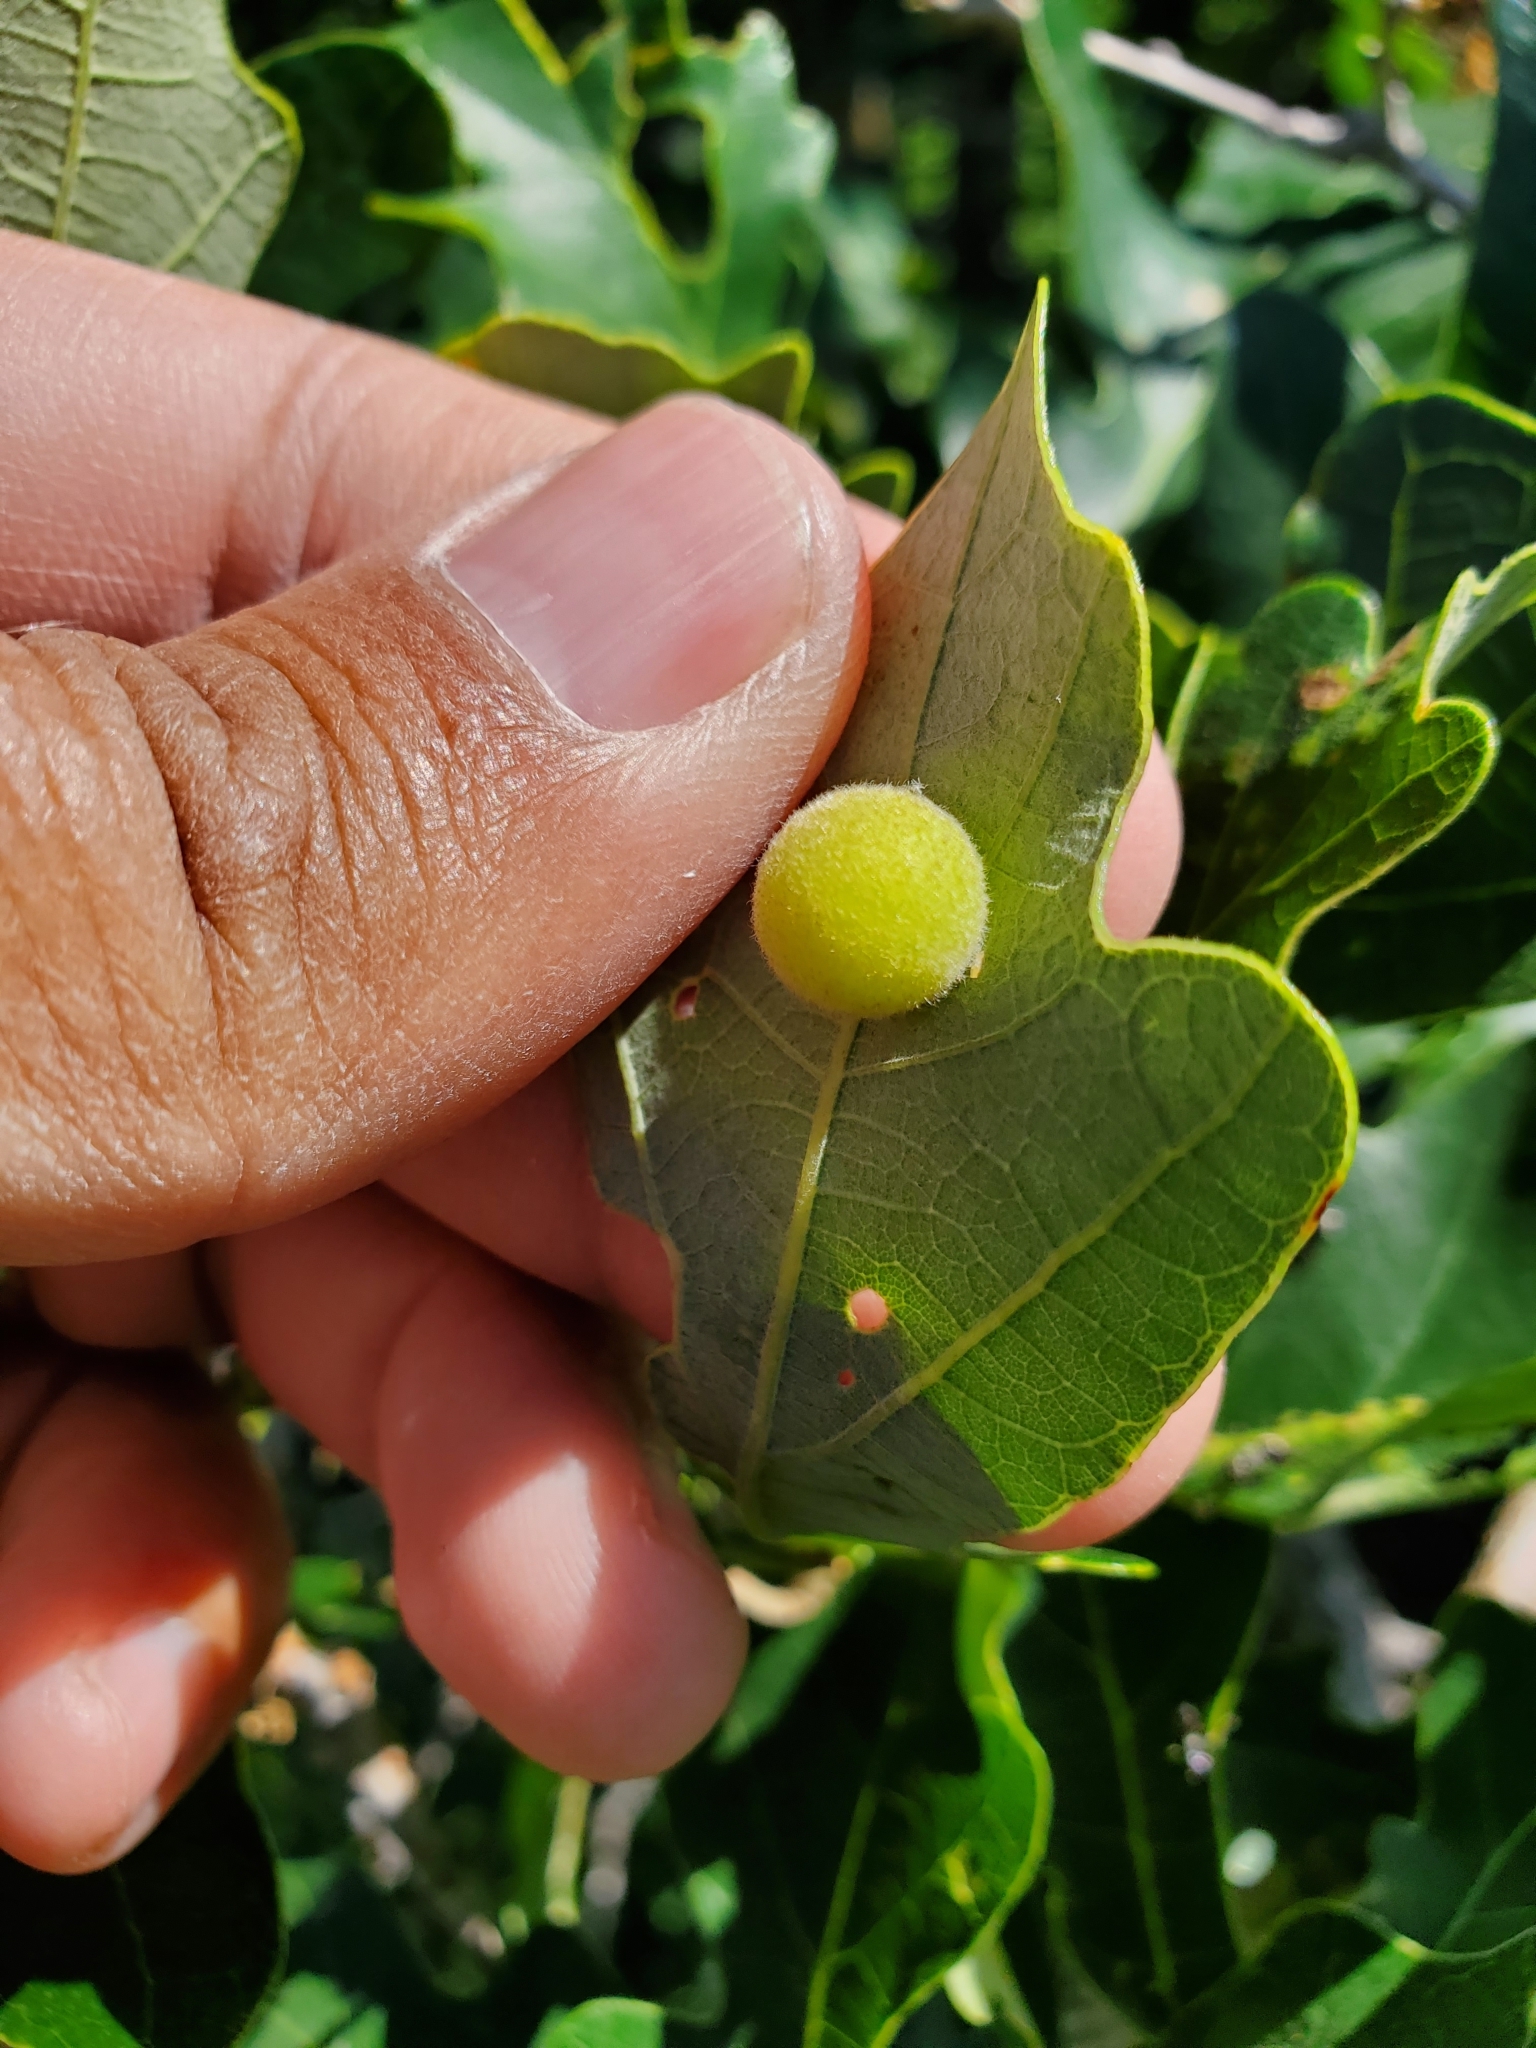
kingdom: Animalia
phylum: Arthropoda
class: Insecta
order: Hymenoptera
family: Cynipidae
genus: Philonix
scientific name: Philonix fulvicollis
